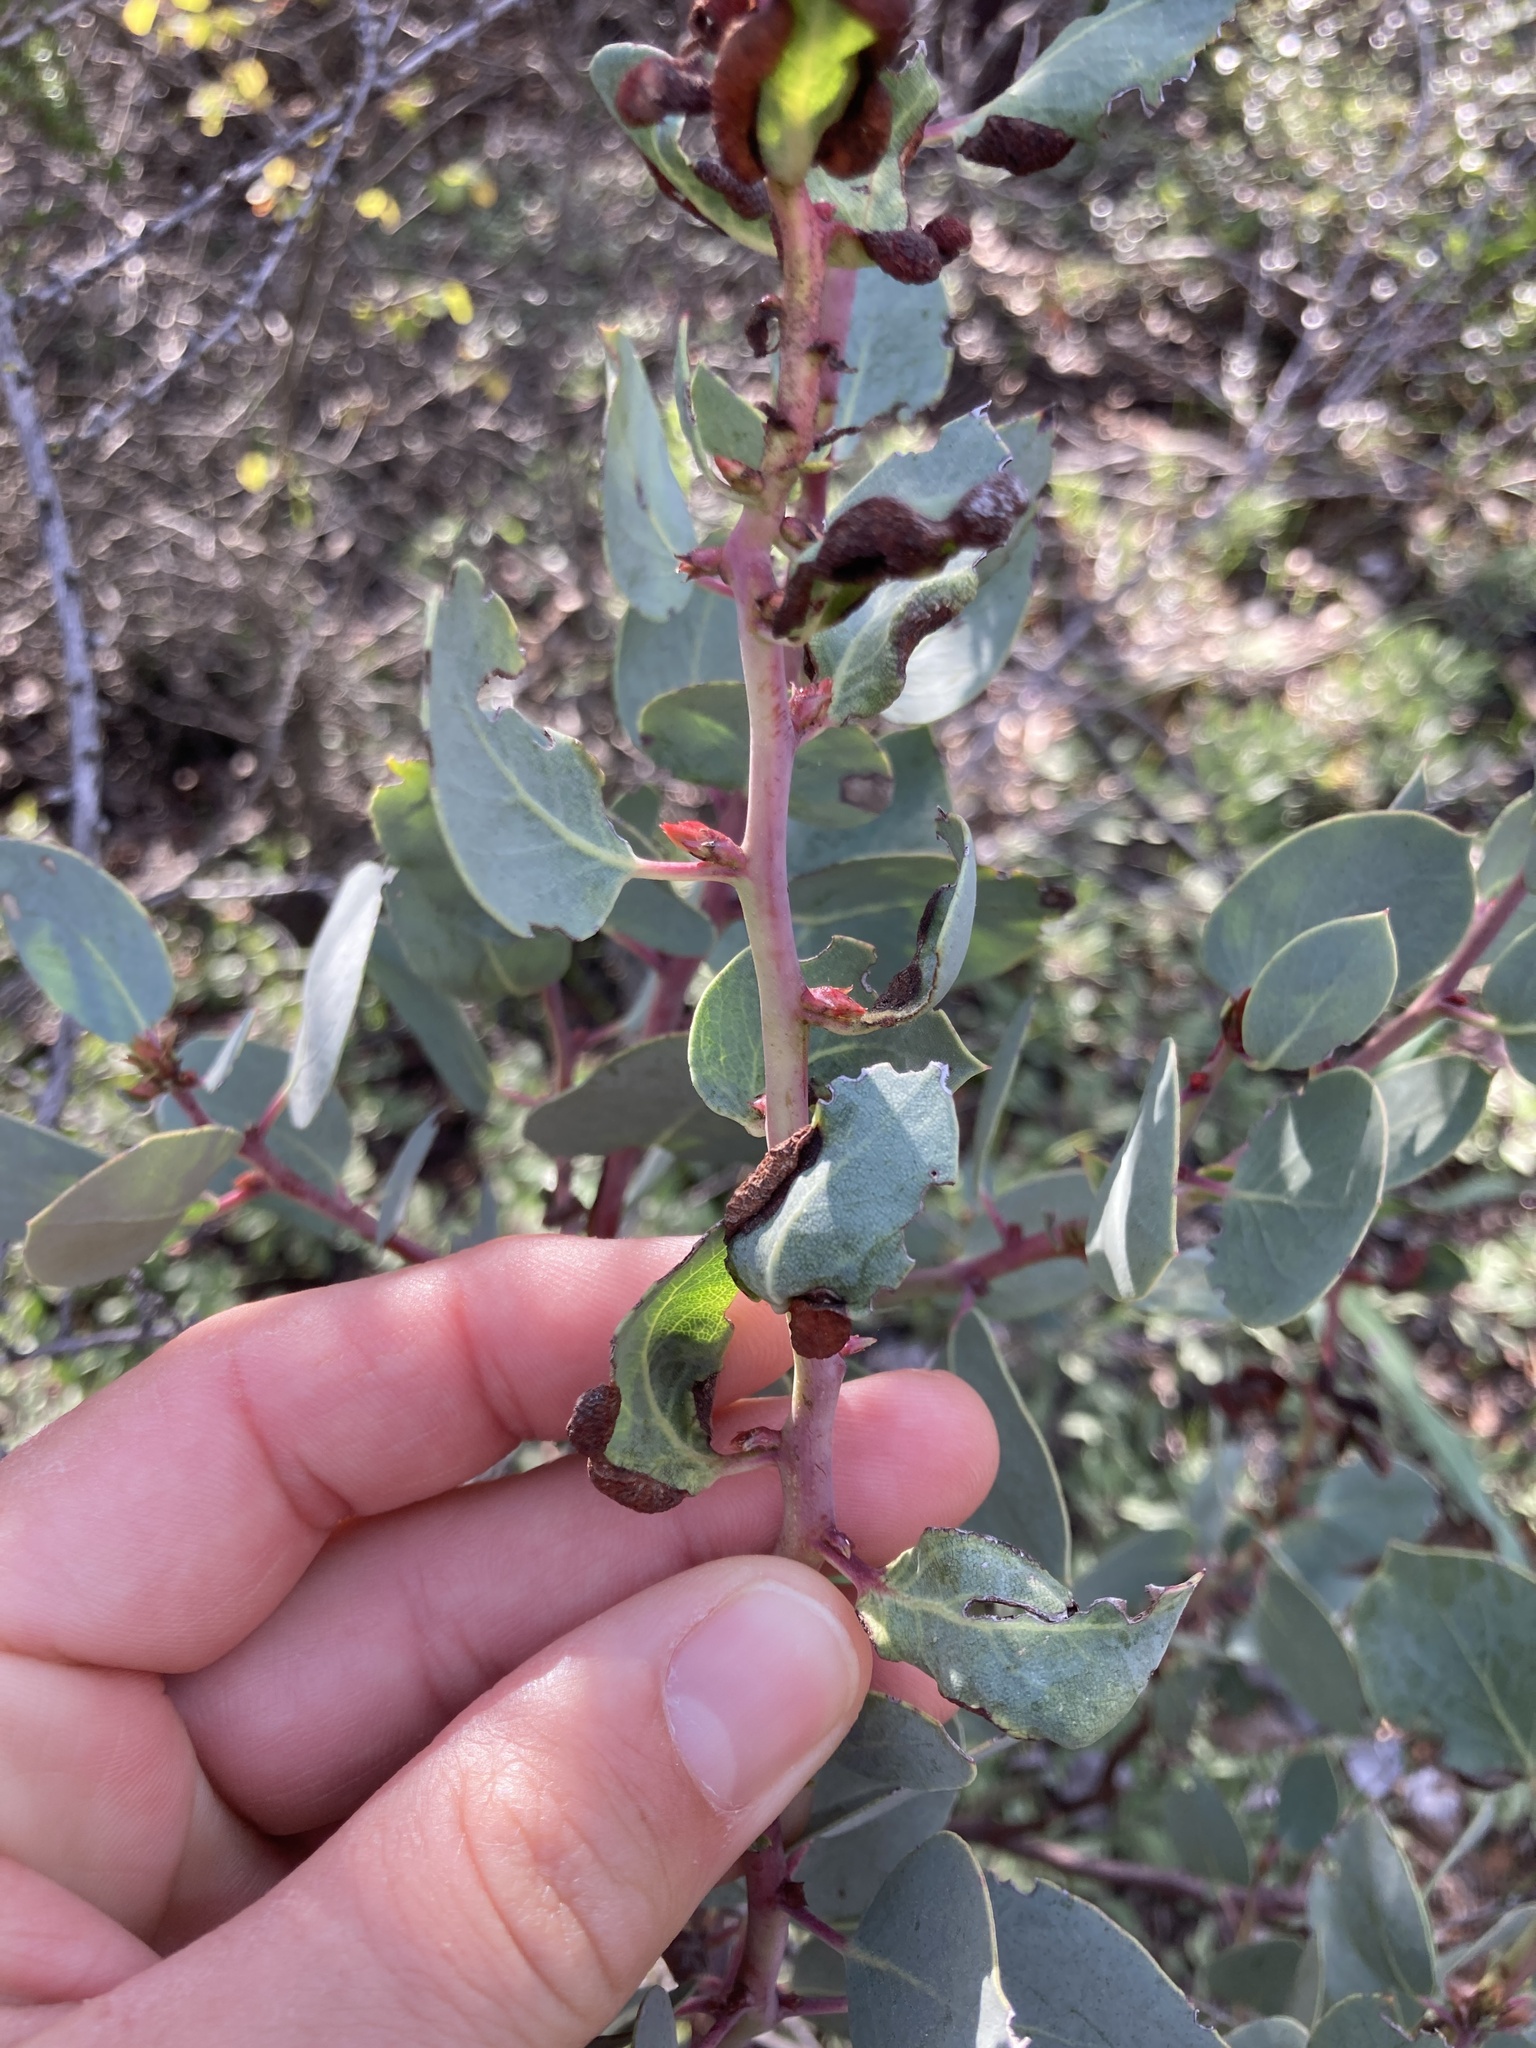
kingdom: Animalia
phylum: Arthropoda
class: Insecta
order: Hemiptera
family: Aphididae
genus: Tamalia
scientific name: Tamalia coweni
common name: Manzanita leafgall aphid
